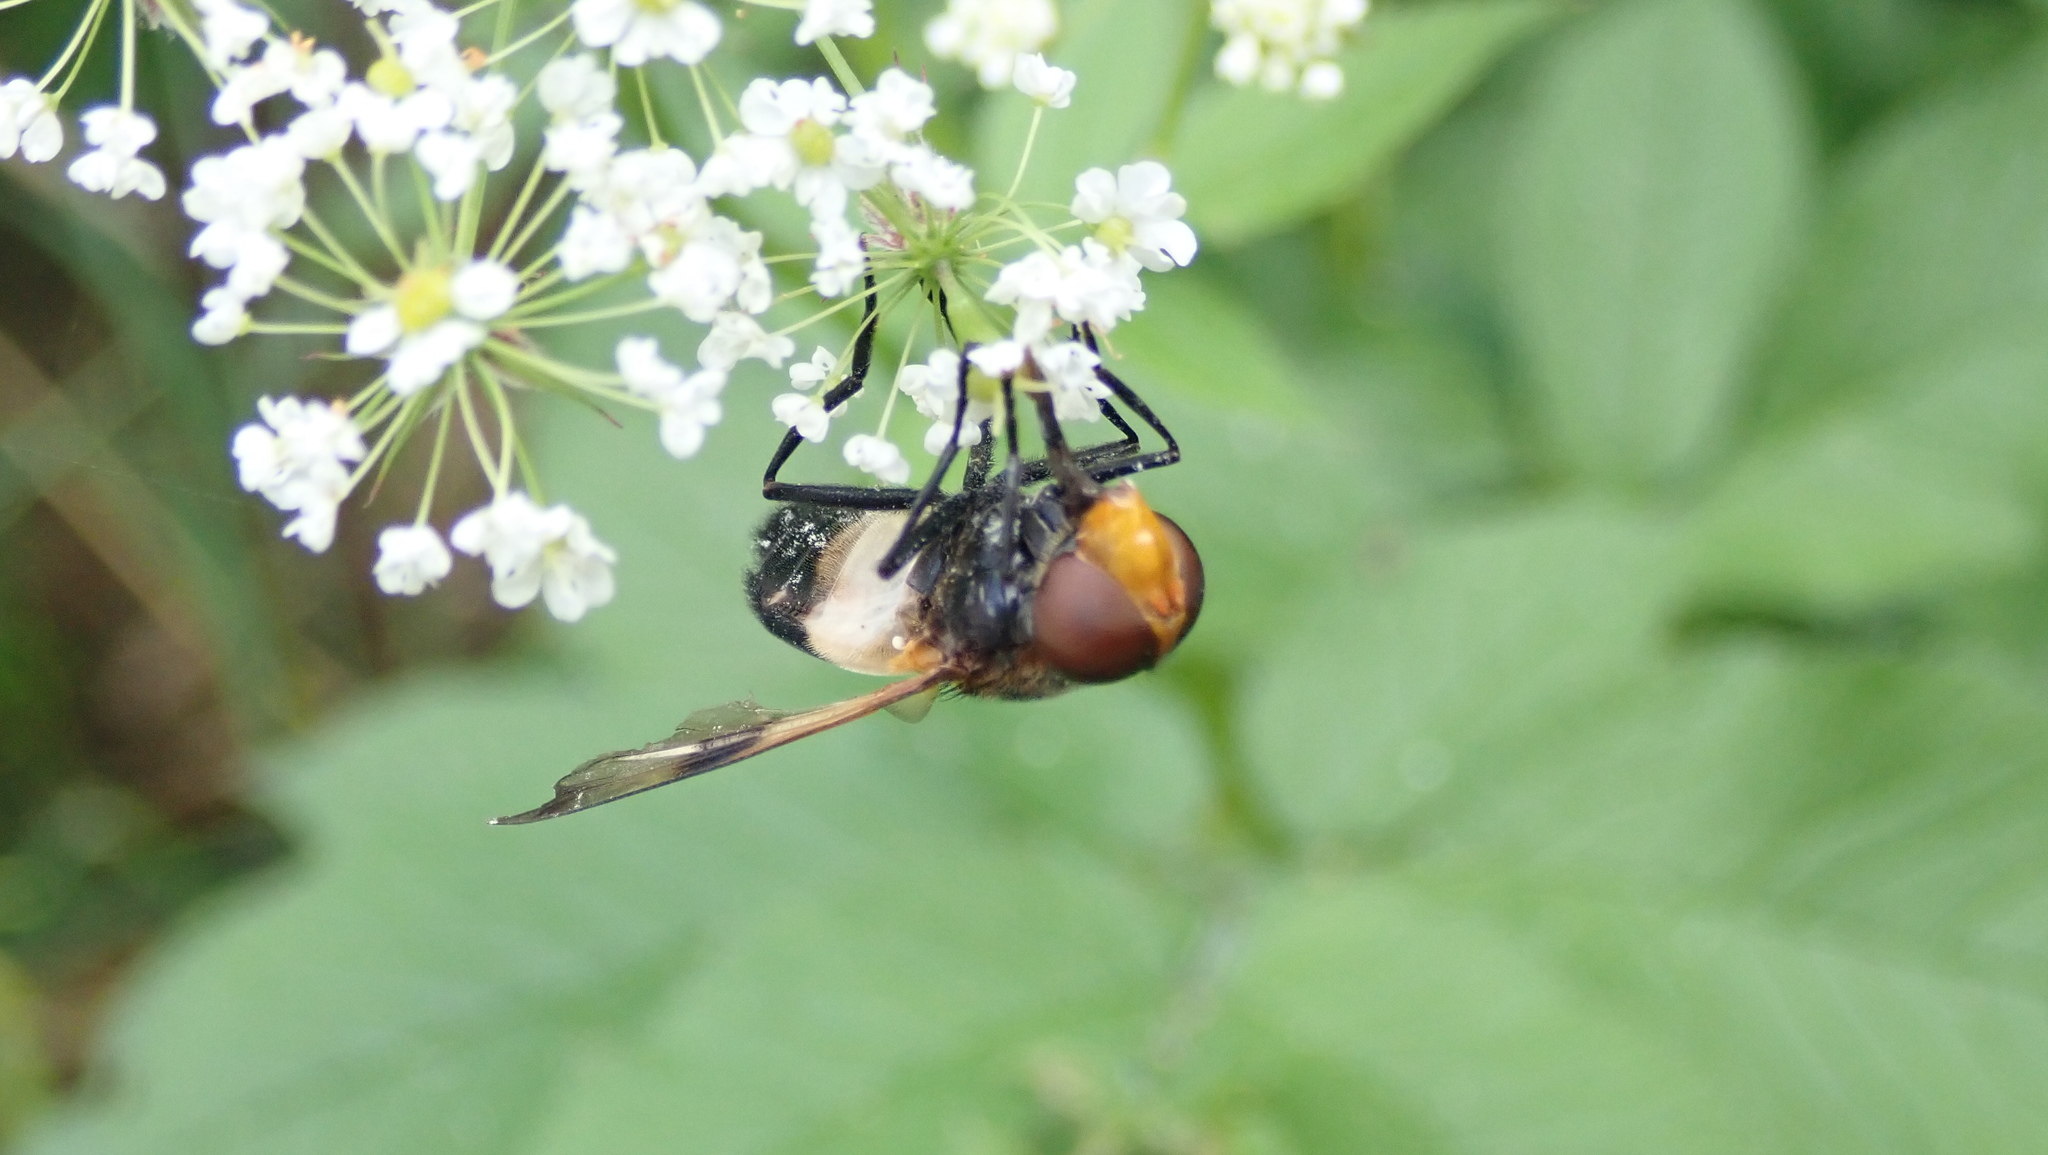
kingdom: Animalia
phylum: Arthropoda
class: Insecta
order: Diptera
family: Syrphidae
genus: Volucella
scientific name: Volucella pellucens
